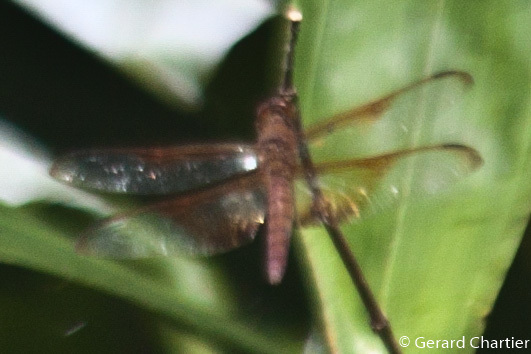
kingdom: Animalia
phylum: Arthropoda
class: Insecta
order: Odonata
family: Libellulidae
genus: Camacinia
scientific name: Camacinia gigantea
